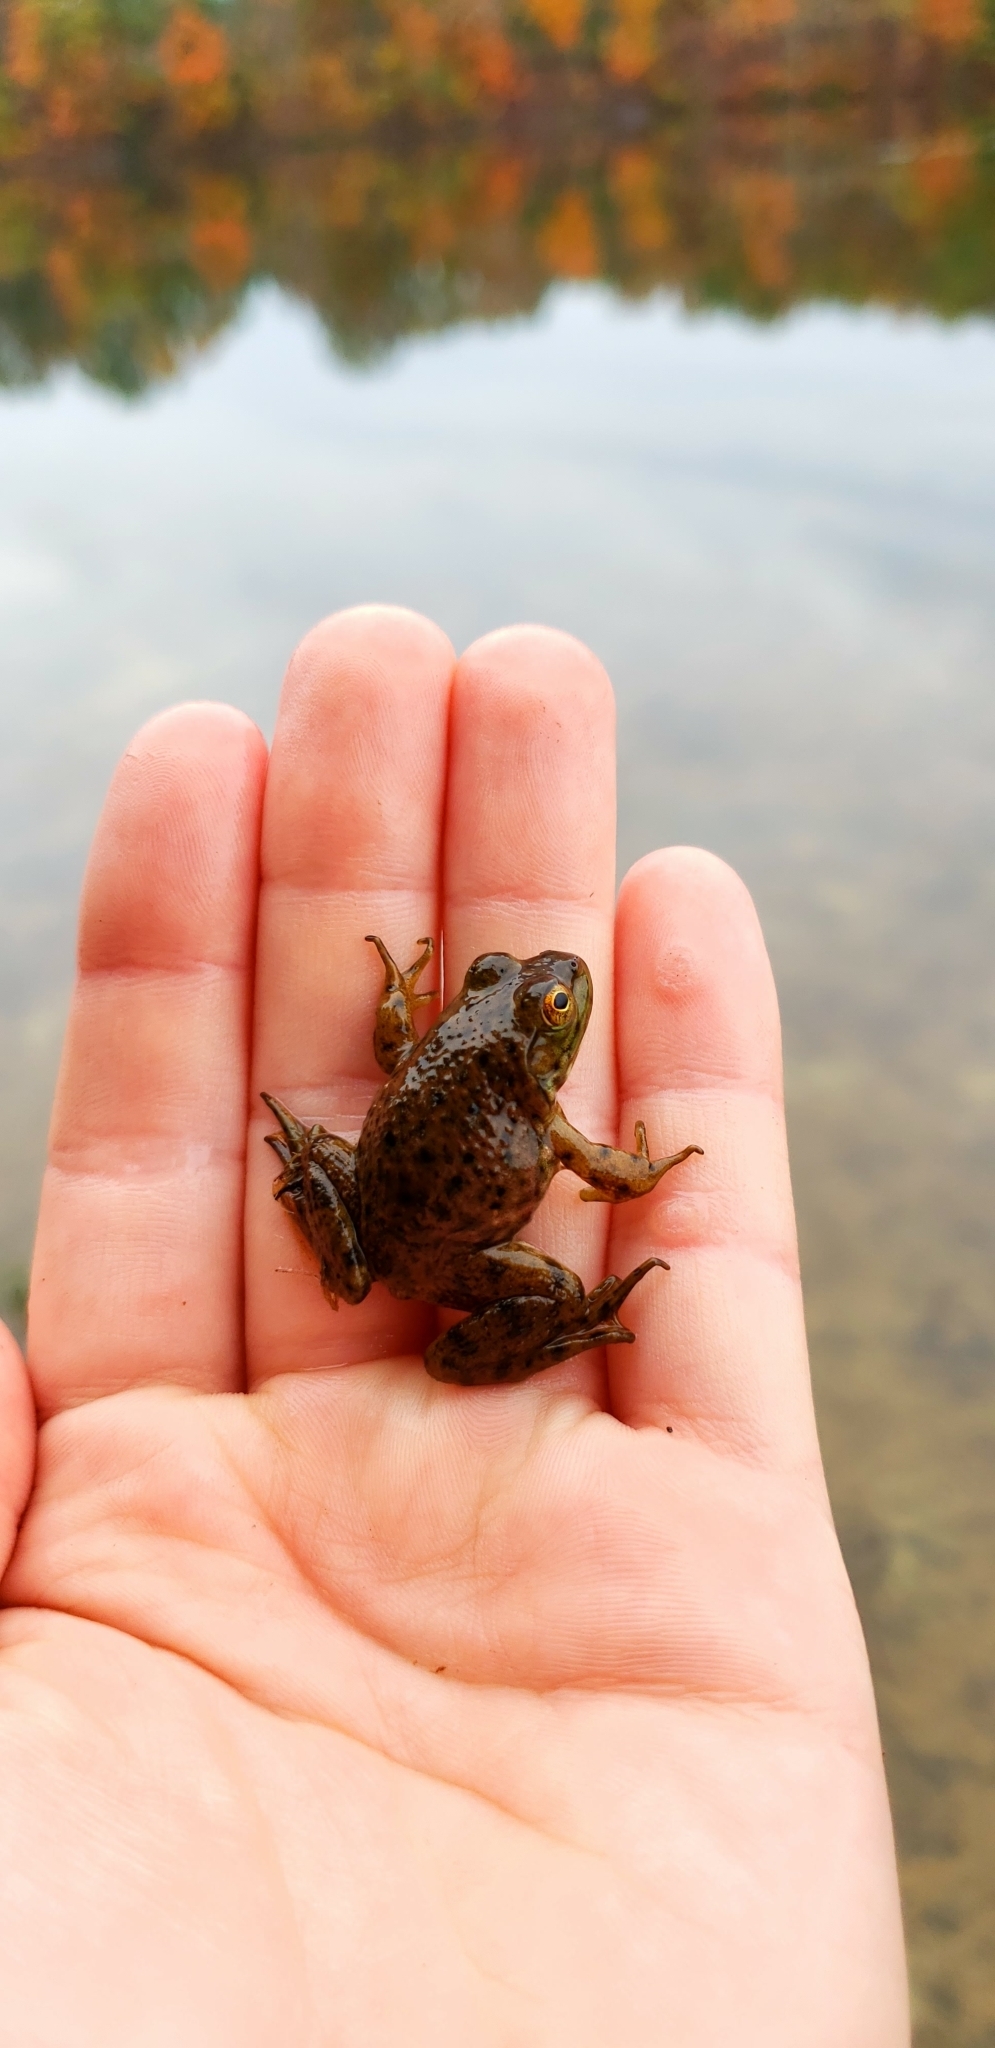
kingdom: Animalia
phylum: Chordata
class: Amphibia
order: Anura
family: Ranidae
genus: Lithobates
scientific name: Lithobates catesbeianus
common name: American bullfrog
